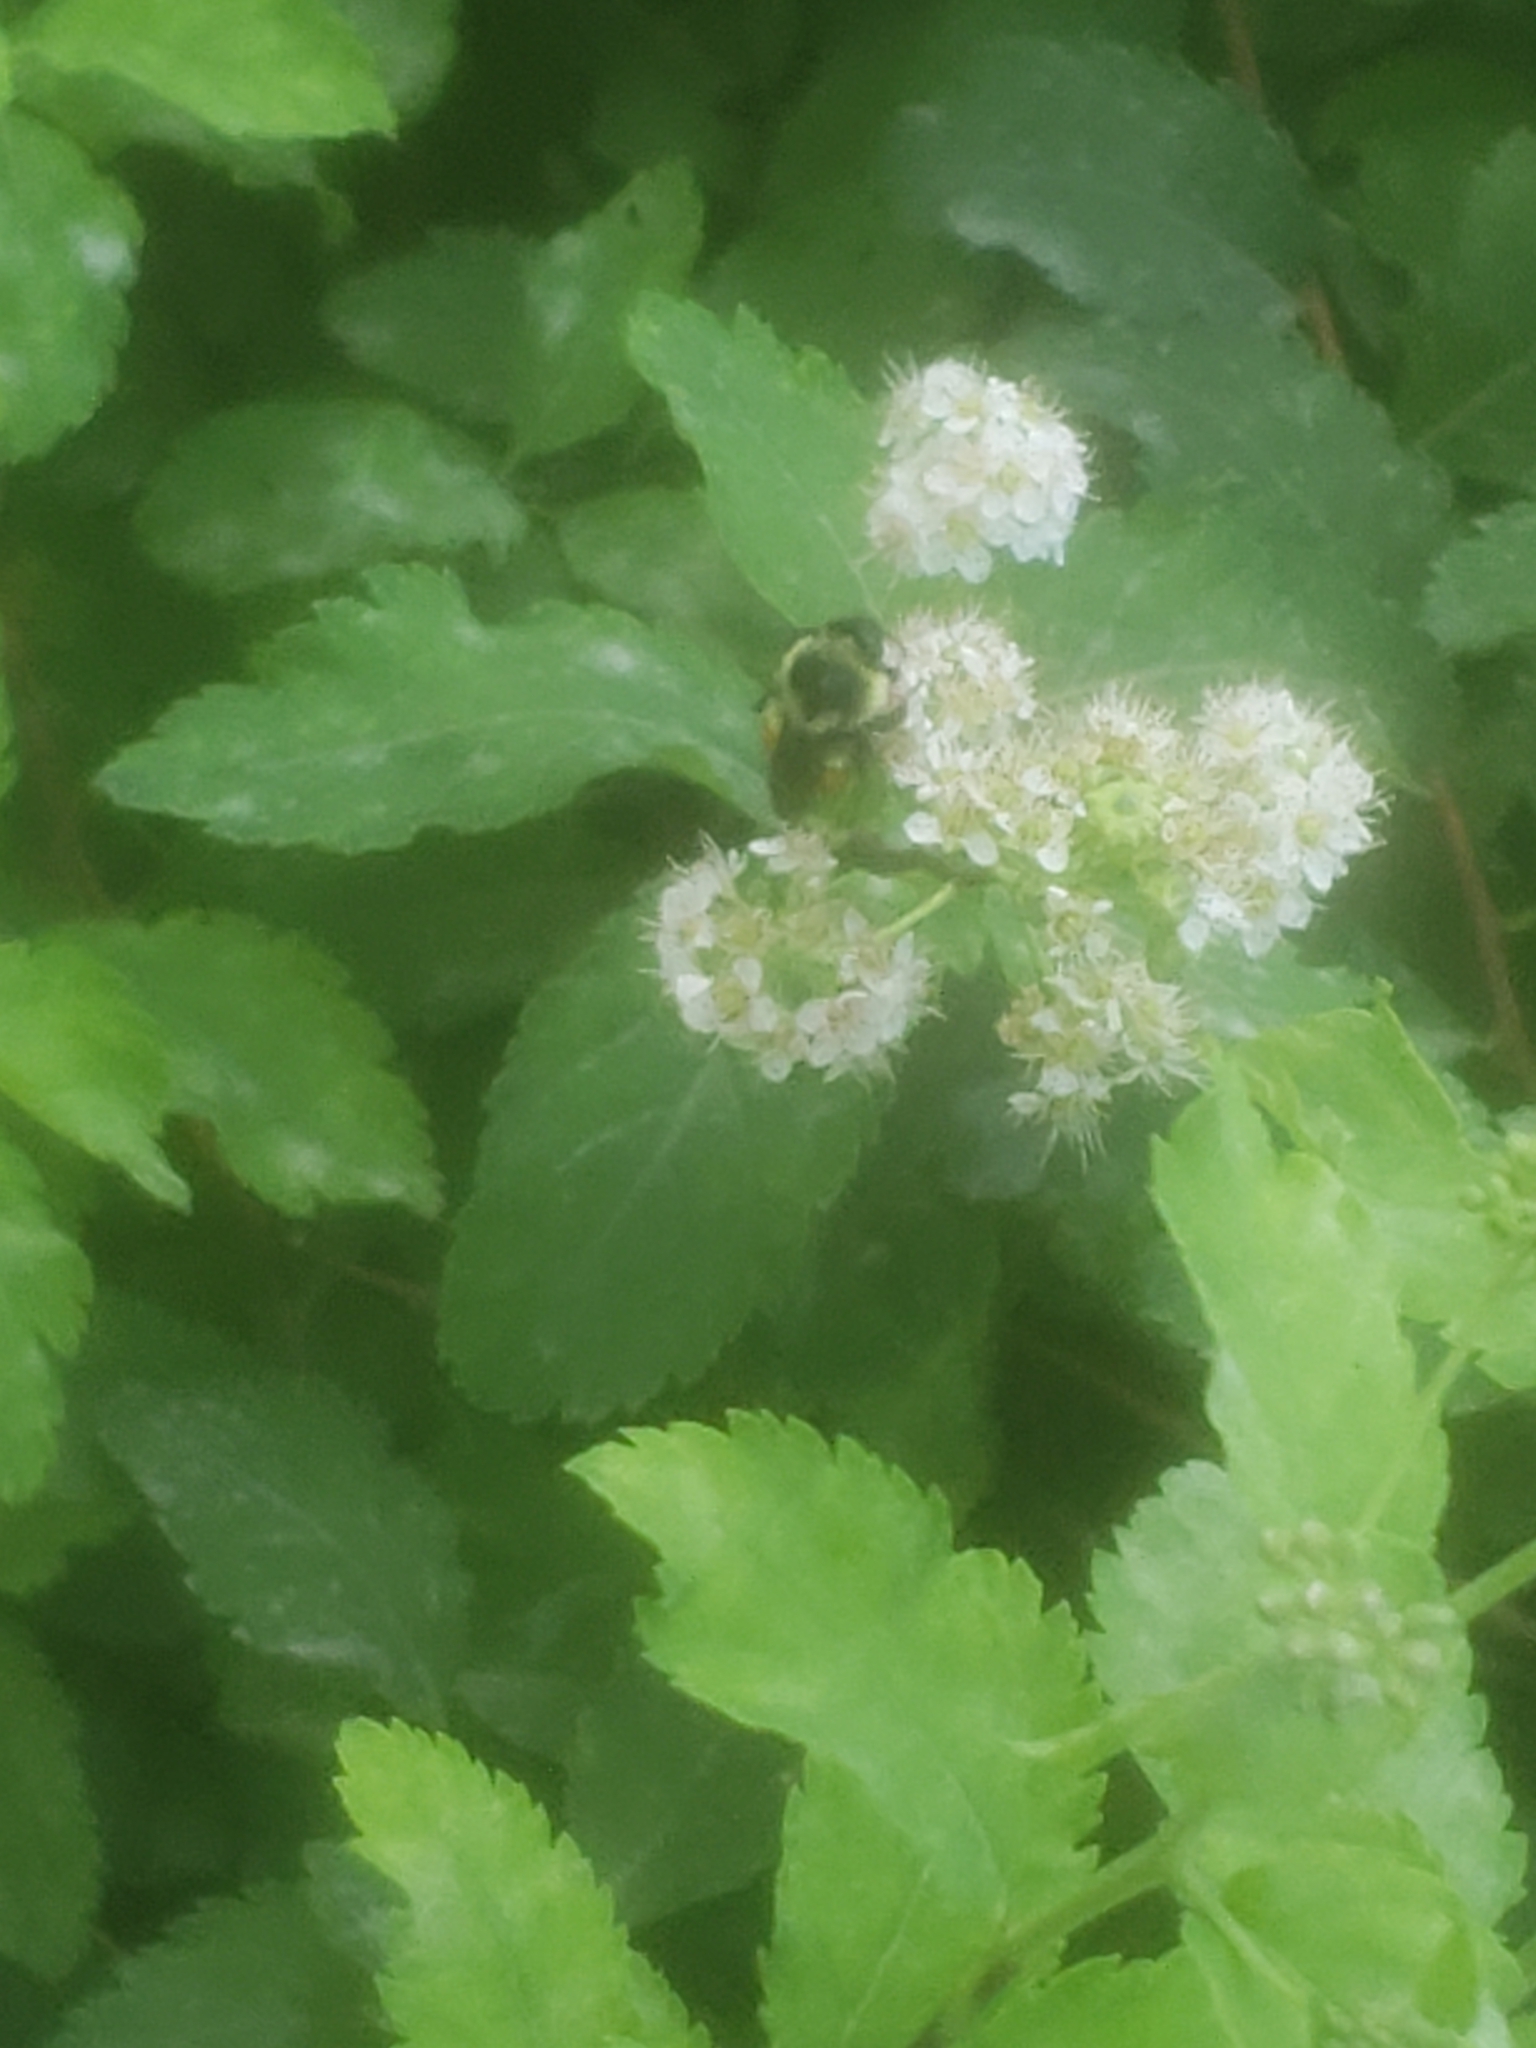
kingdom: Animalia
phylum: Arthropoda
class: Insecta
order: Hymenoptera
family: Apidae
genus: Bombus
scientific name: Bombus ternarius
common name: Tri-colored bumble bee
